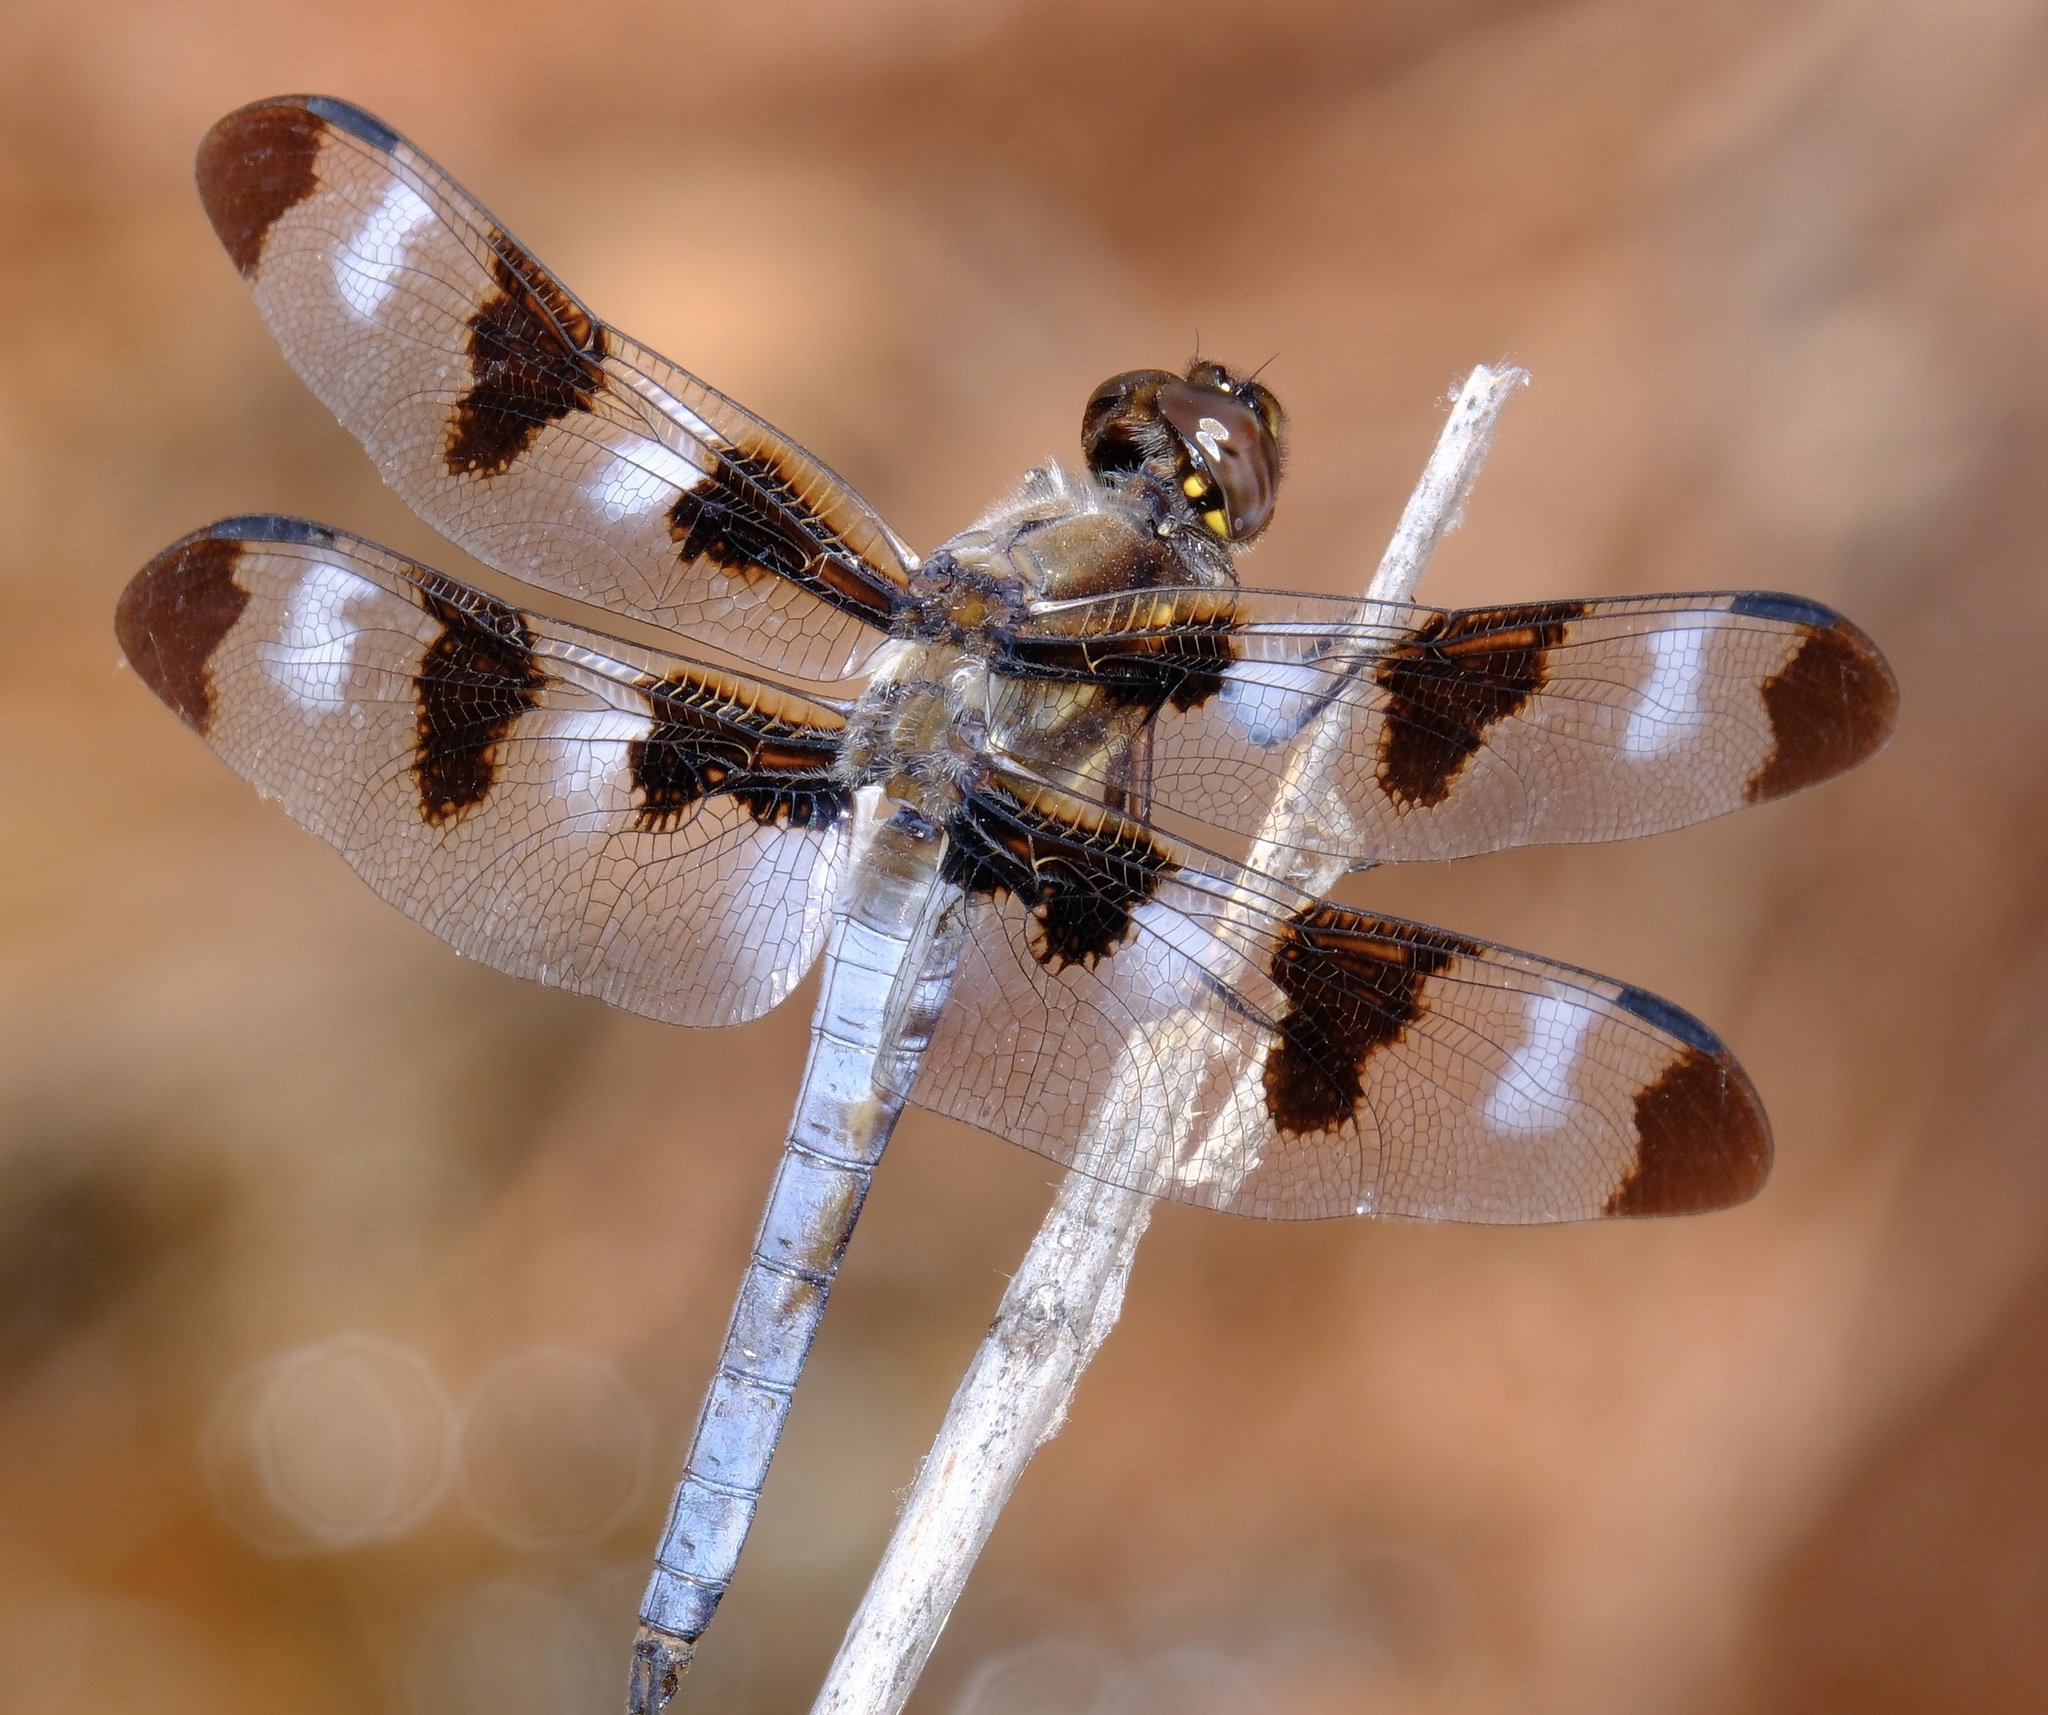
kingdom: Animalia
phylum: Arthropoda
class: Insecta
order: Odonata
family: Libellulidae
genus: Libellula
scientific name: Libellula pulchella
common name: Twelve-spotted skimmer
